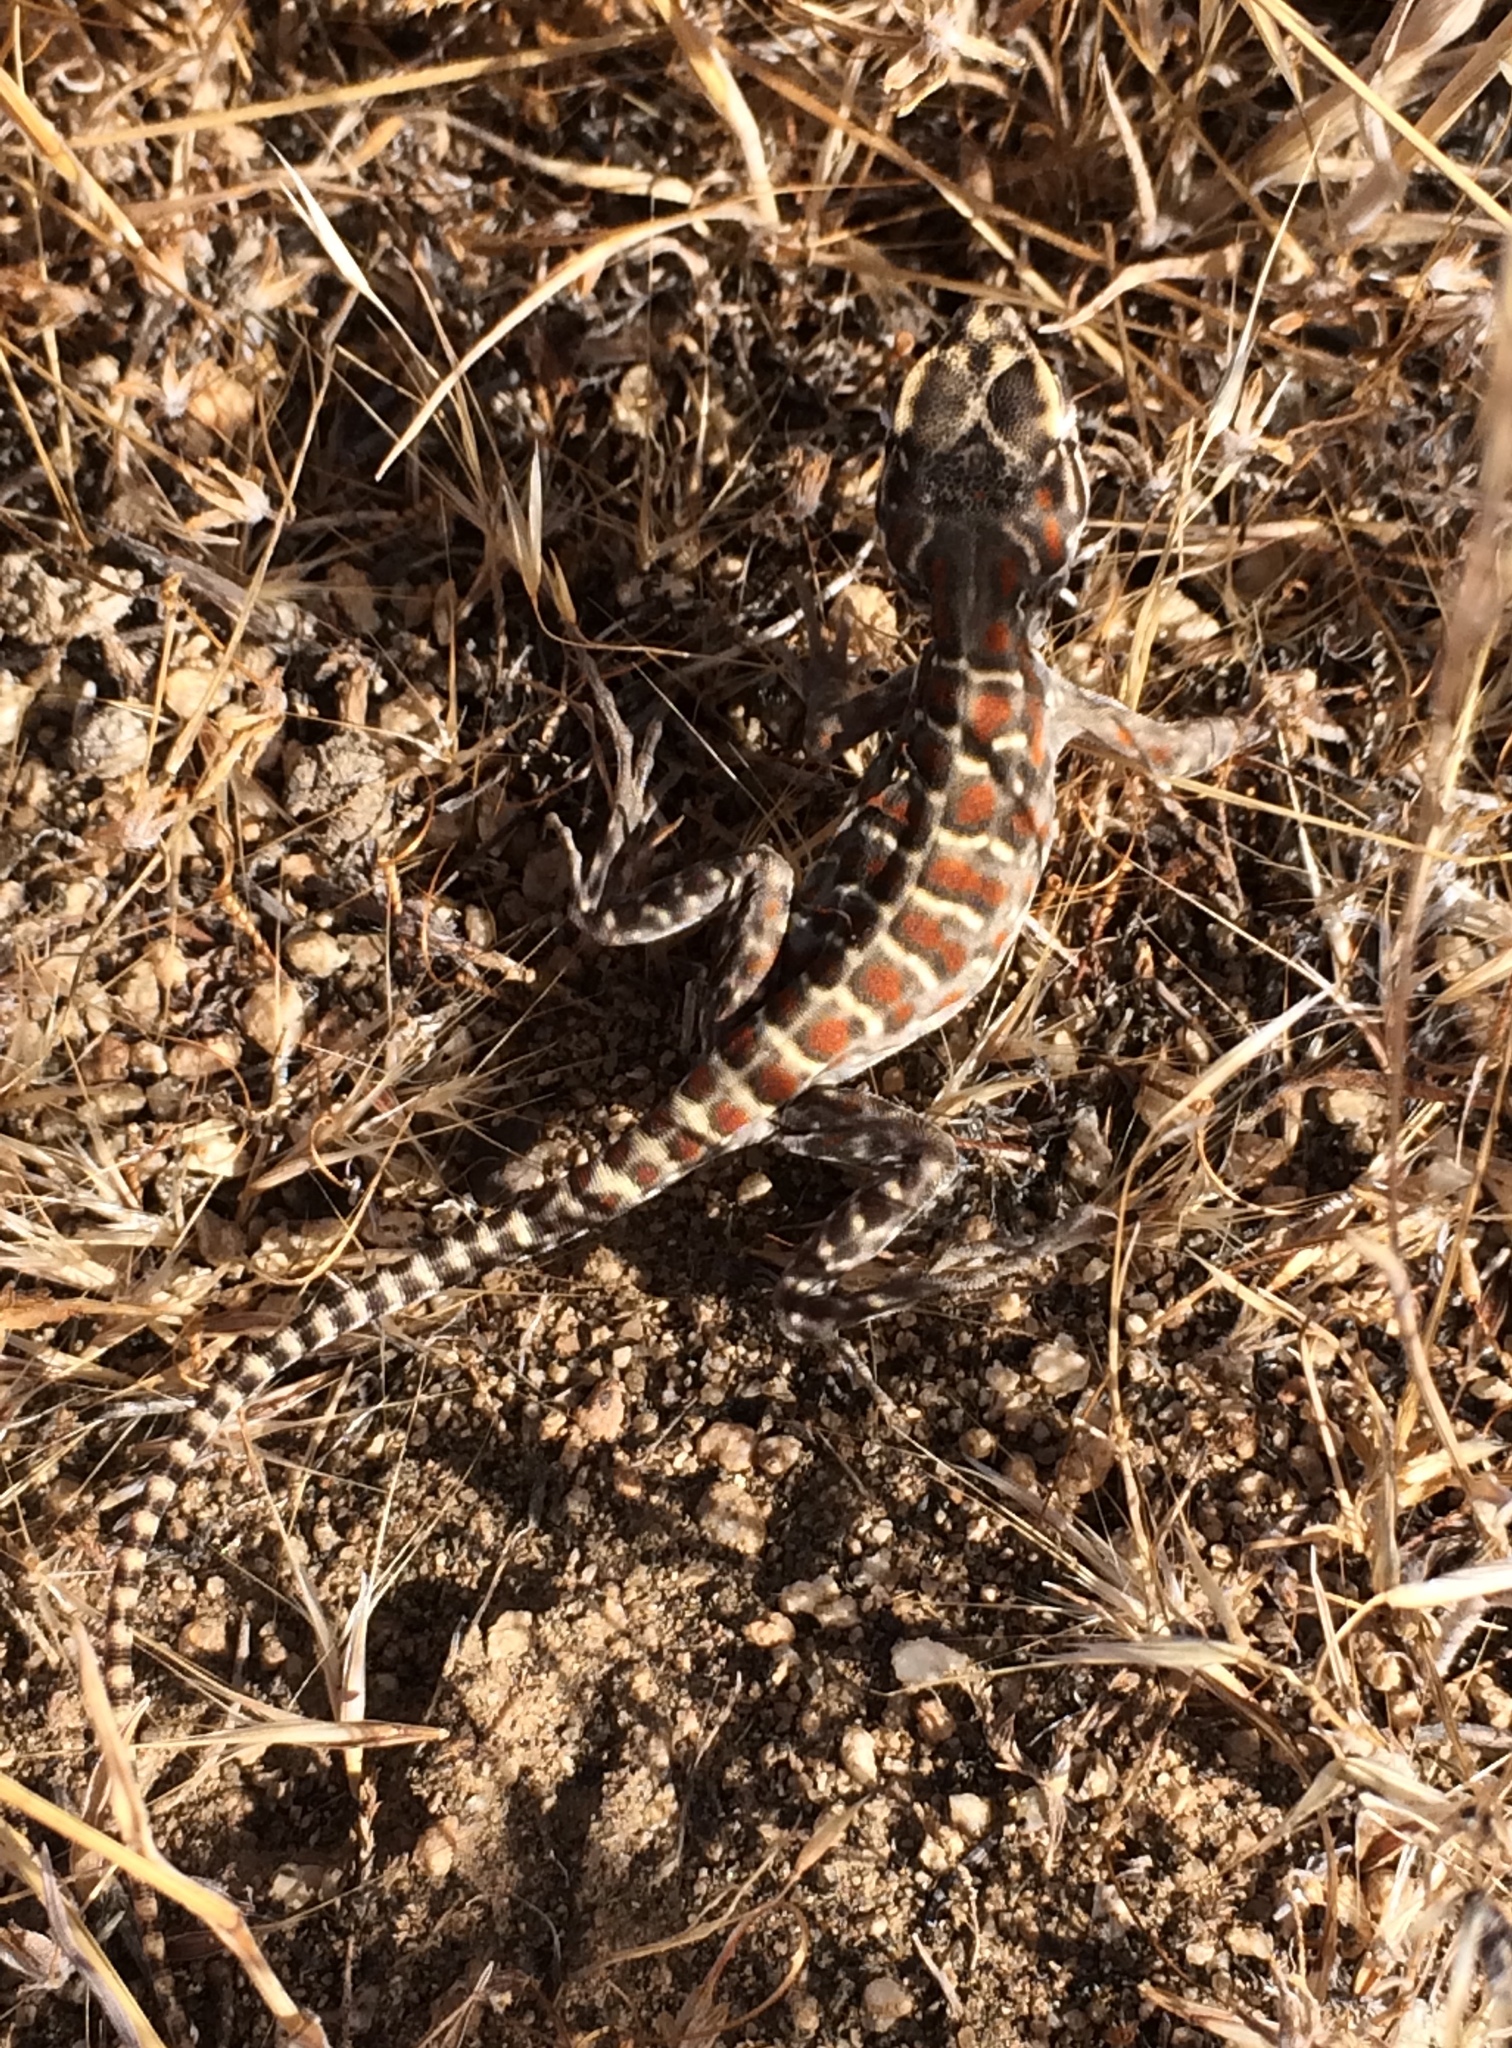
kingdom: Animalia
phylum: Chordata
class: Squamata
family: Crotaphytidae
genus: Gambelia
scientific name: Gambelia wislizenii
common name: Longnose leopard lizard
